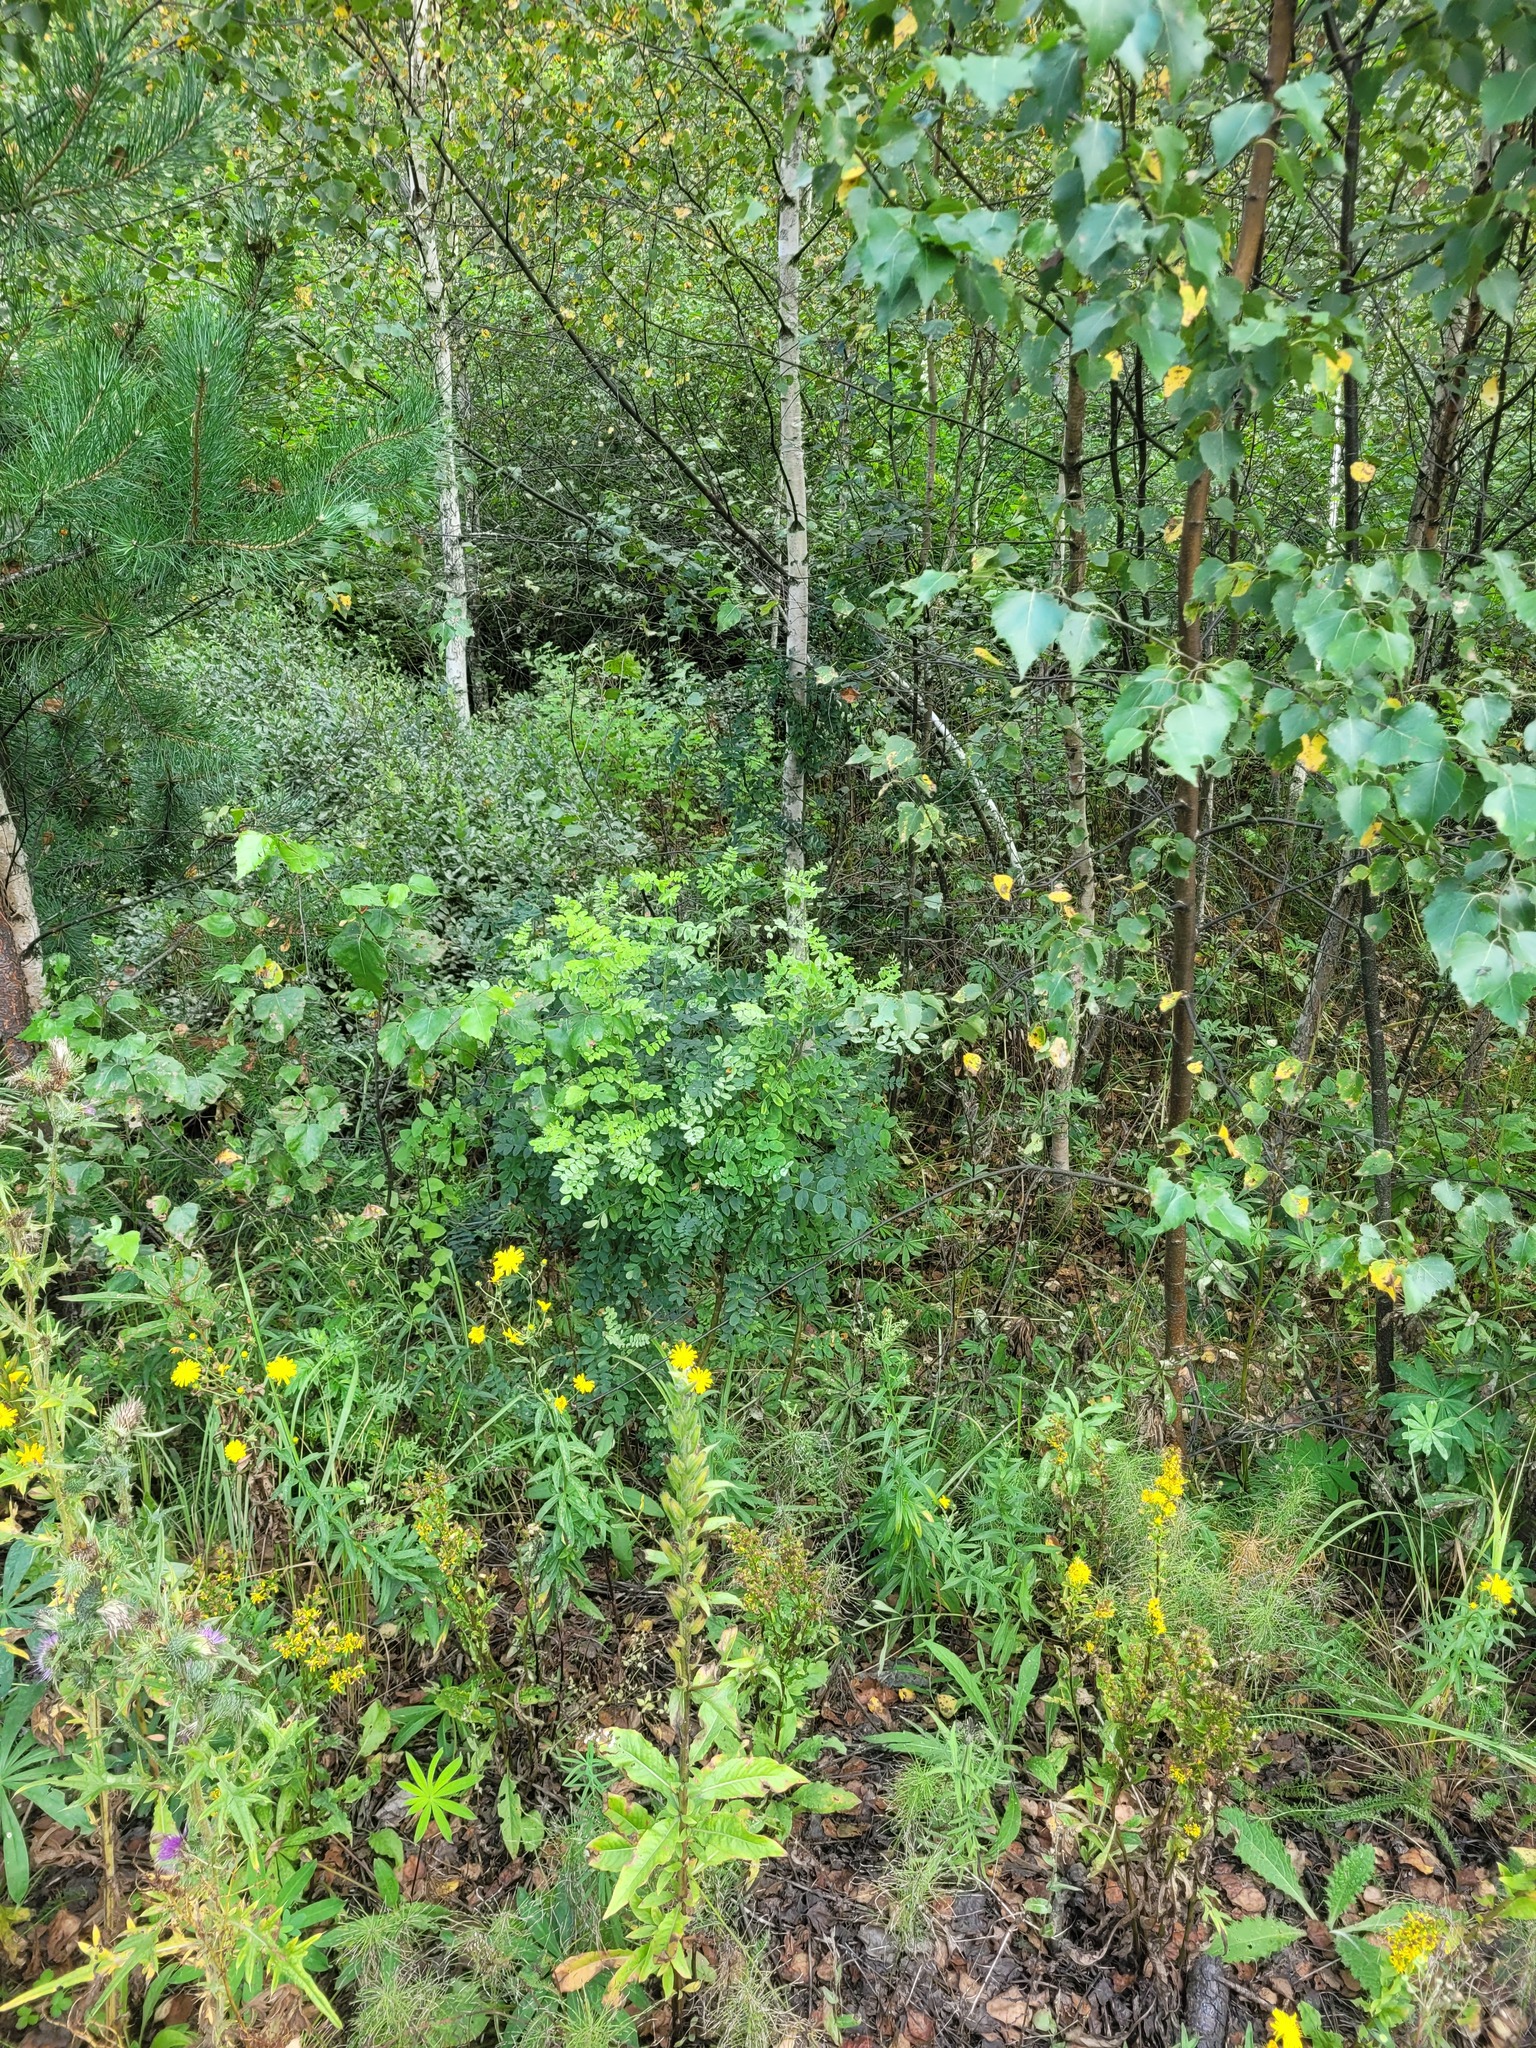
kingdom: Plantae
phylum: Tracheophyta
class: Magnoliopsida
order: Fabales
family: Fabaceae
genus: Caragana
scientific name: Caragana arborescens
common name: Siberian peashrub
